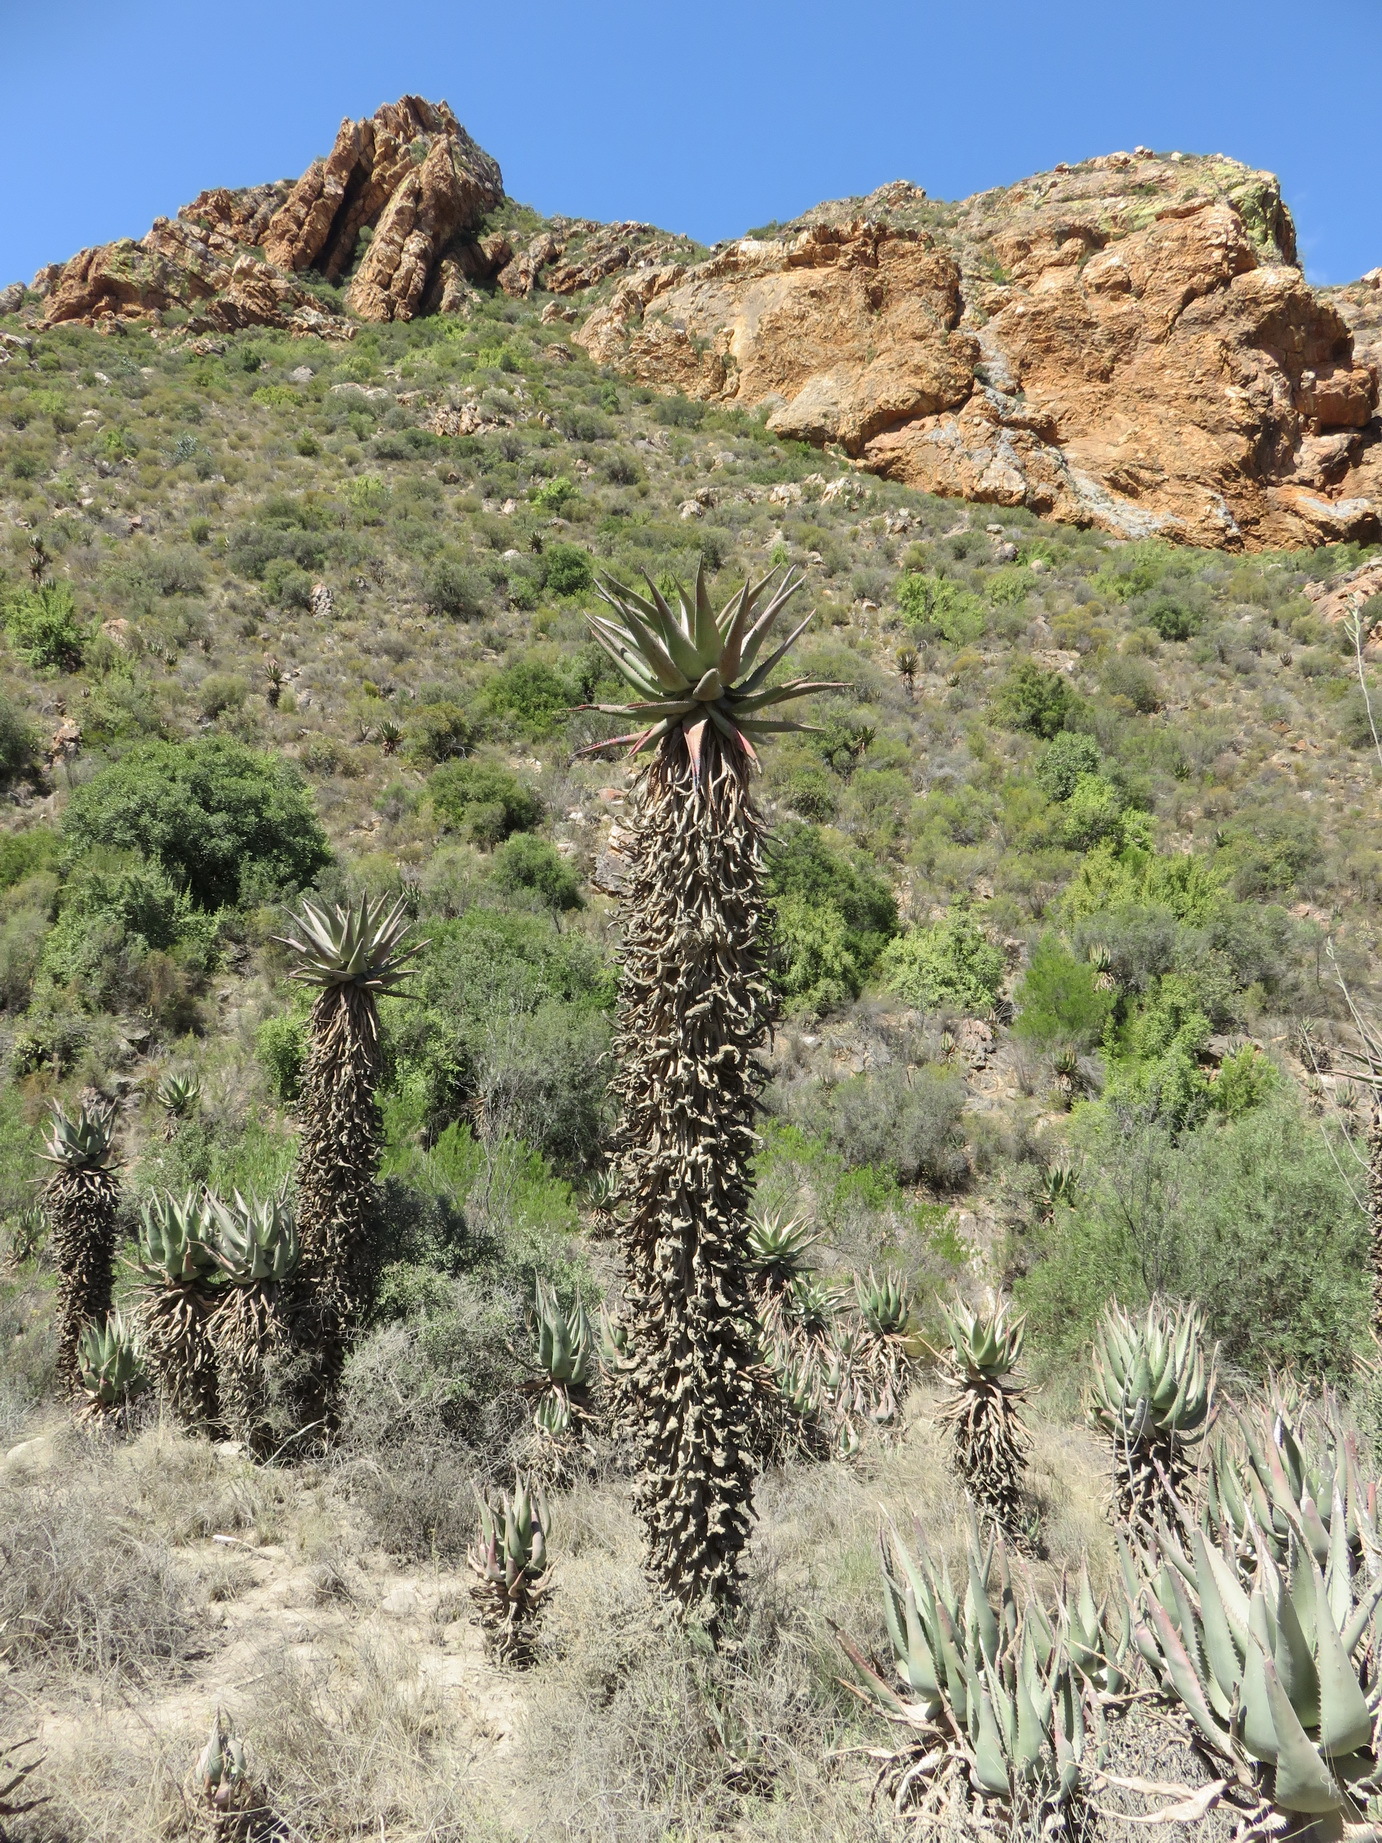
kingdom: Plantae
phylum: Tracheophyta
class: Liliopsida
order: Asparagales
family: Asphodelaceae
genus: Aloe
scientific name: Aloe ferox
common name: Bitter aloe
